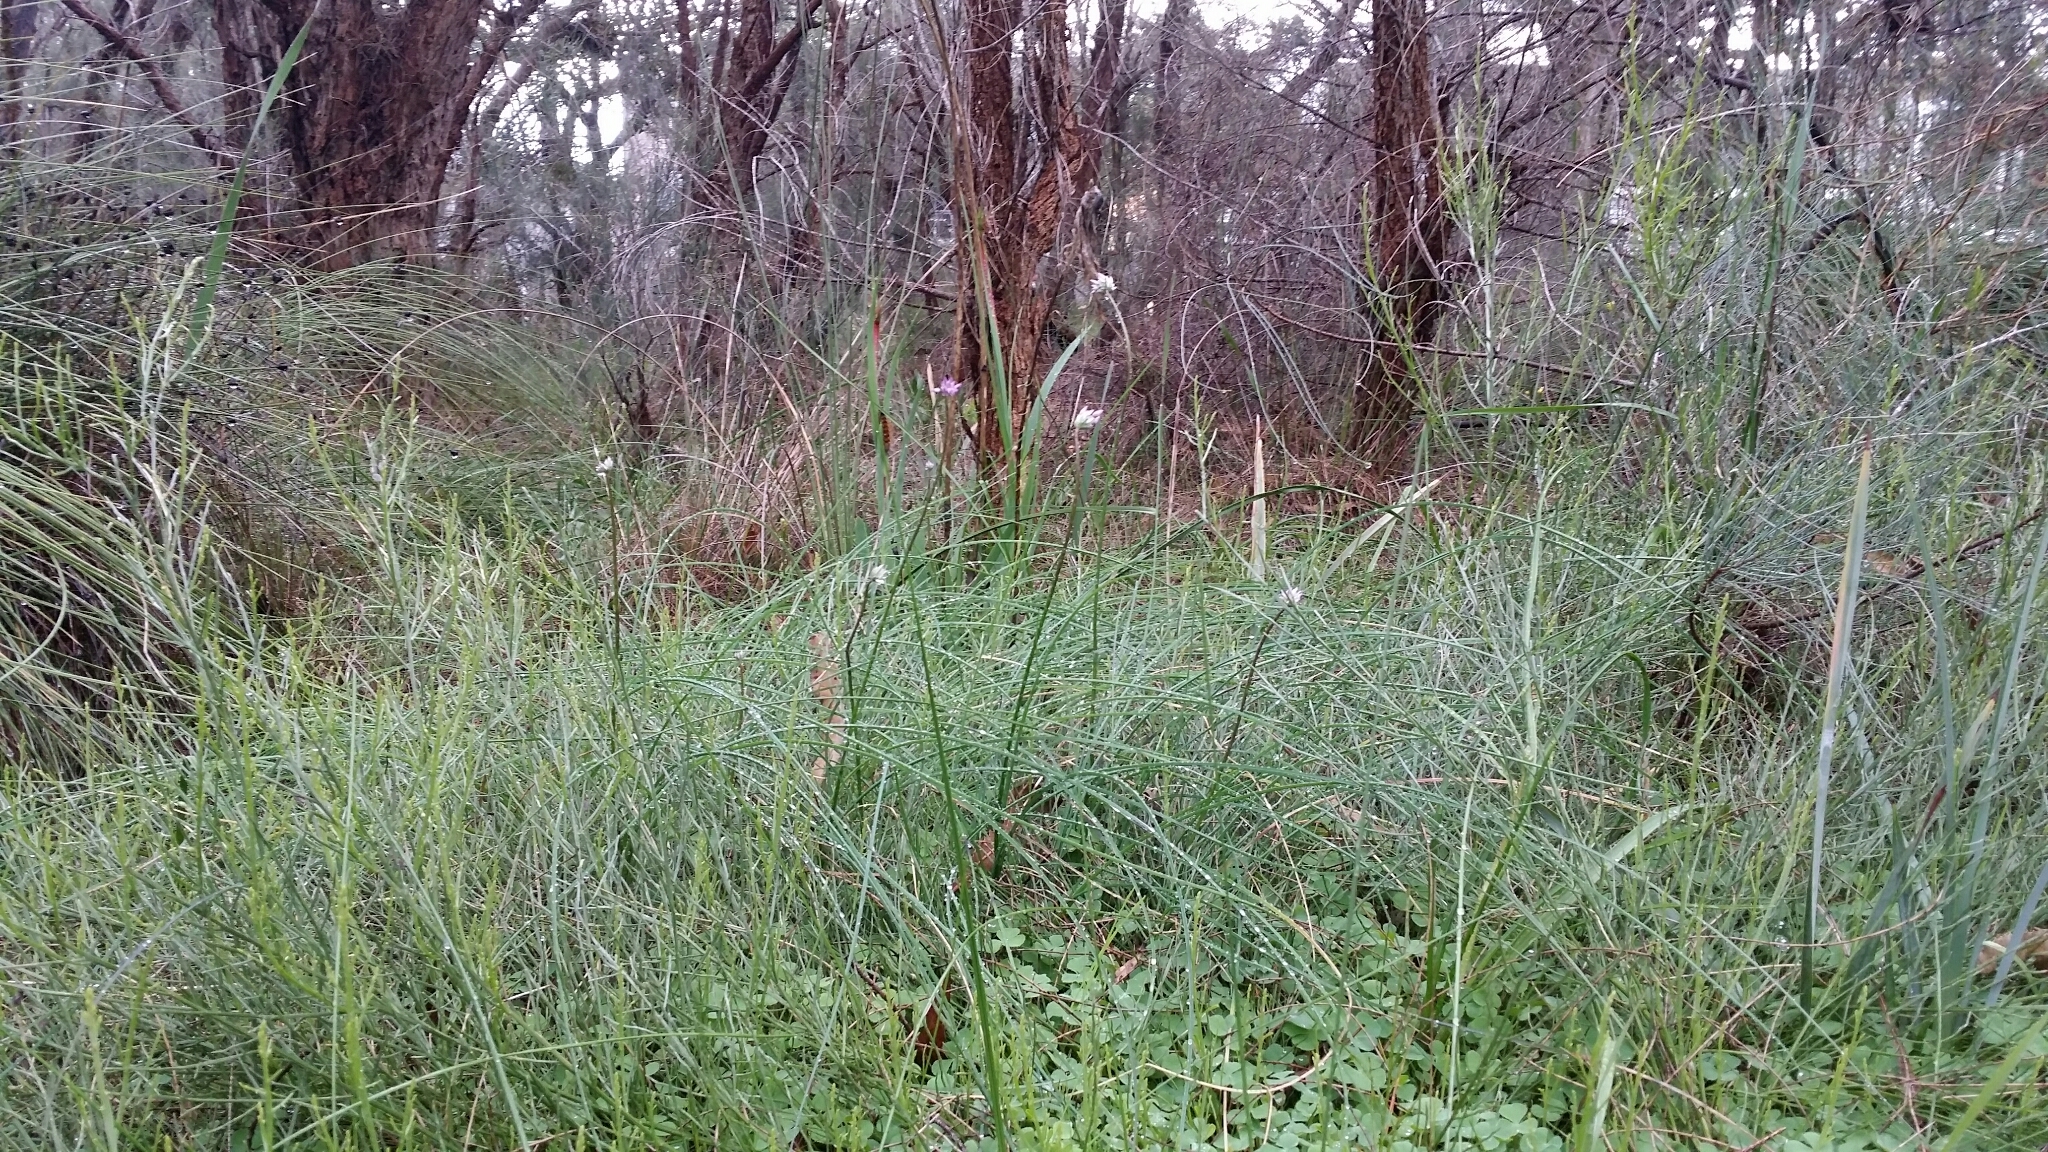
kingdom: Plantae
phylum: Tracheophyta
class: Liliopsida
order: Asparagales
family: Asparagaceae
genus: Sowerbaea
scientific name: Sowerbaea laxiflora
